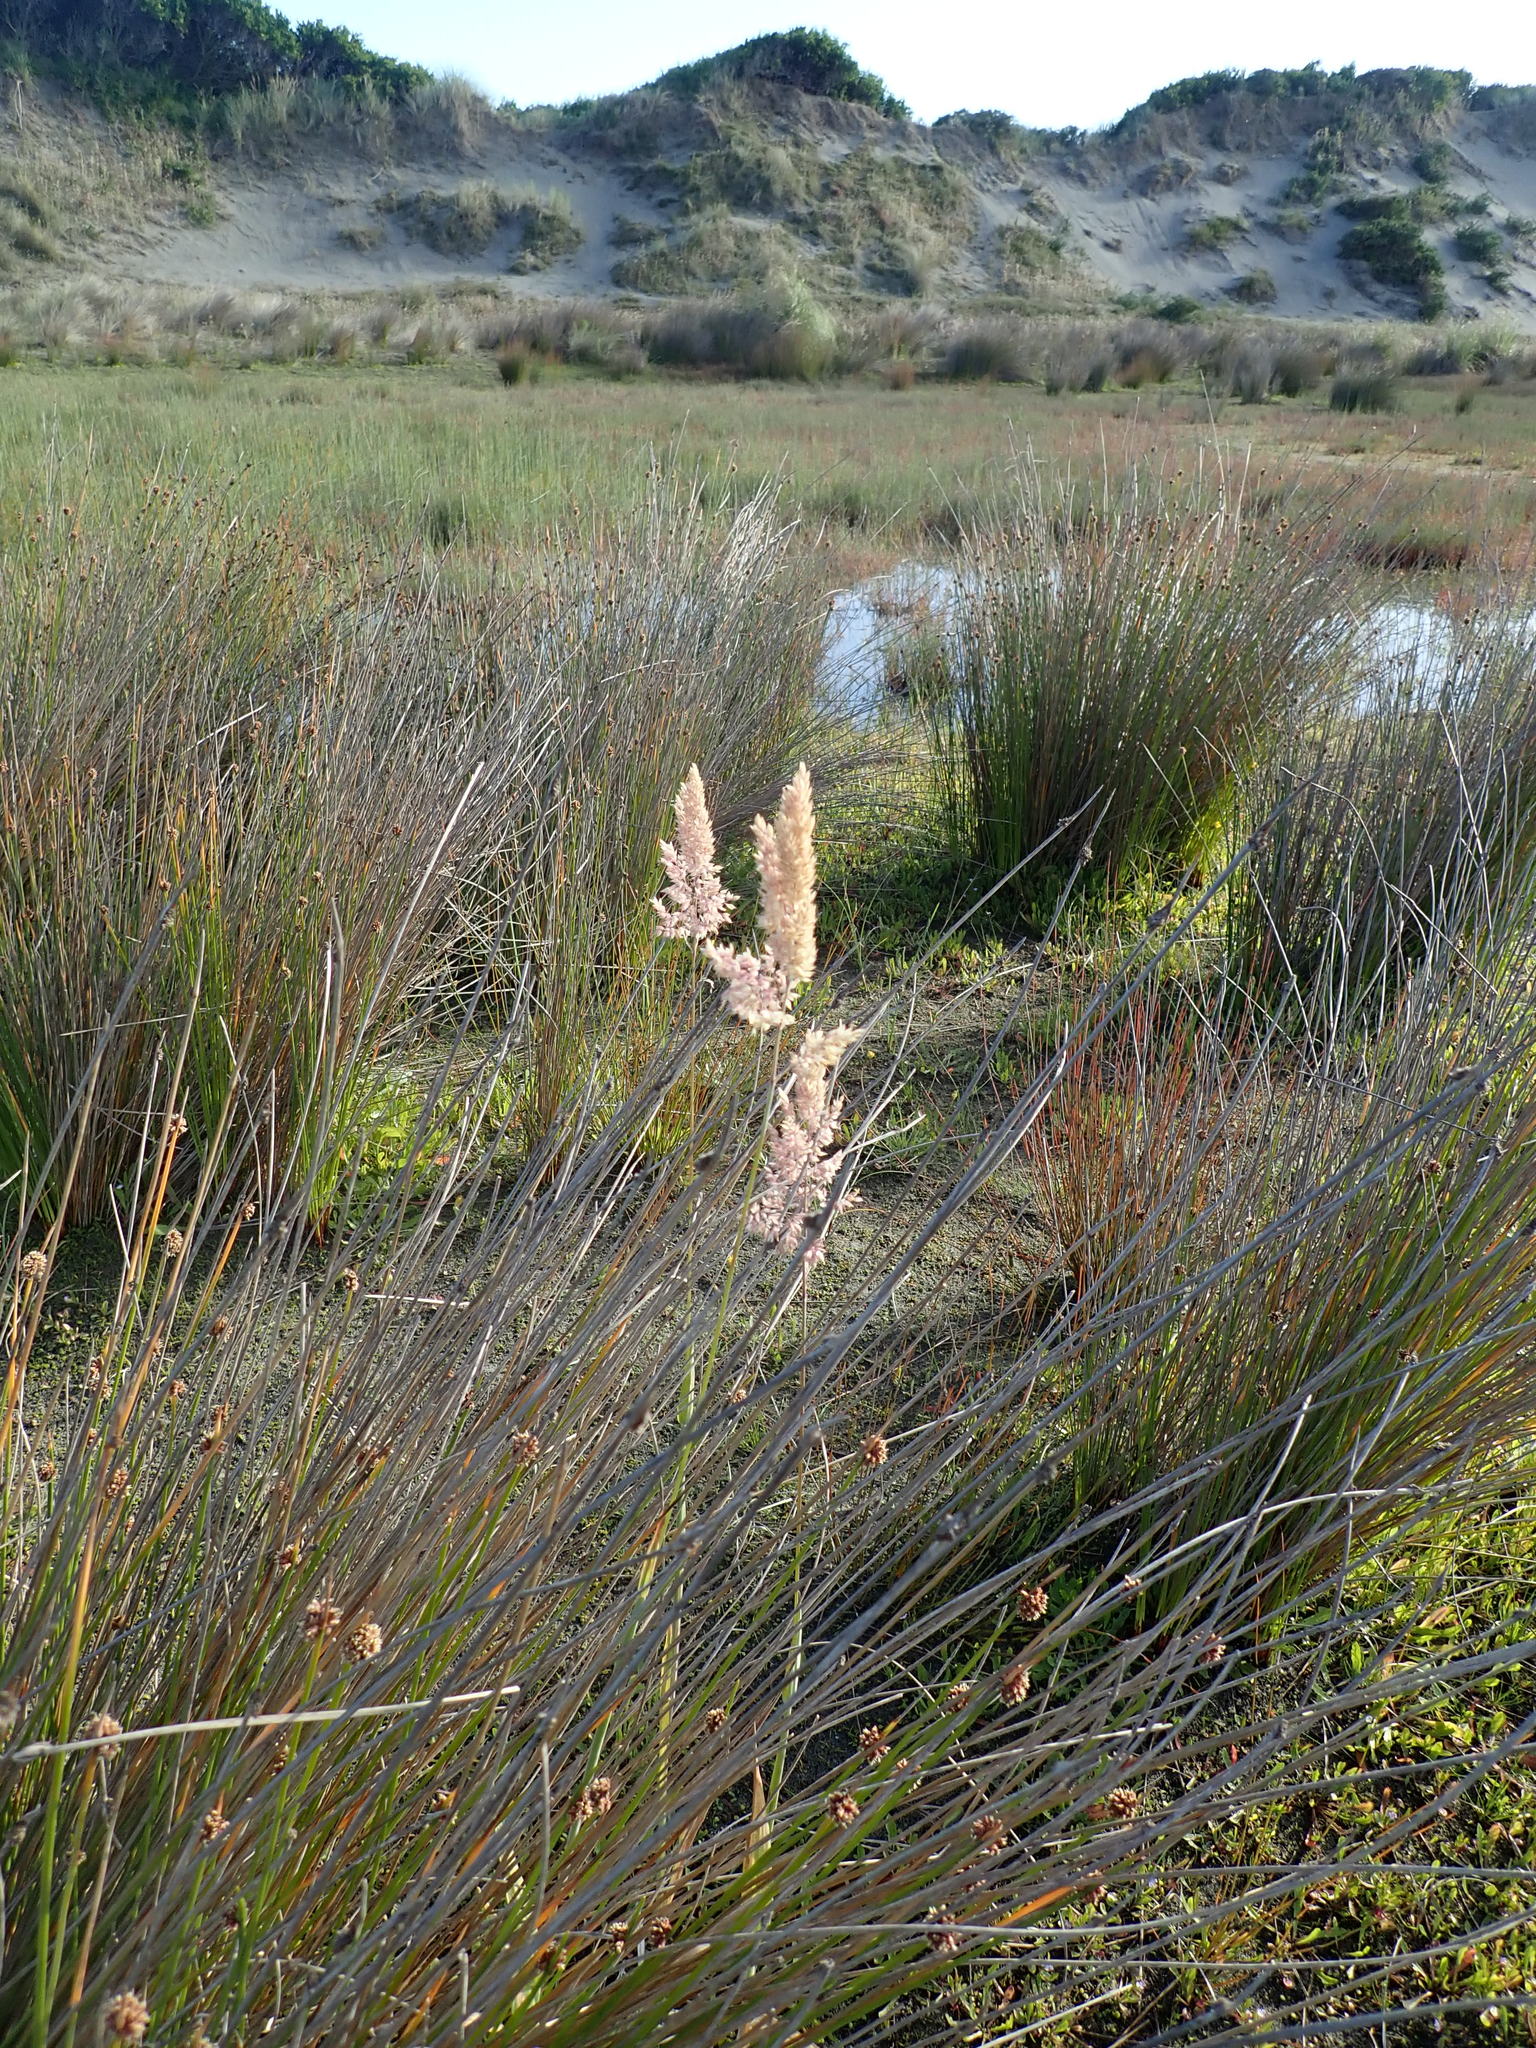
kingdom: Plantae
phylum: Tracheophyta
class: Liliopsida
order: Poales
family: Poaceae
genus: Holcus
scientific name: Holcus lanatus
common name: Yorkshire-fog
